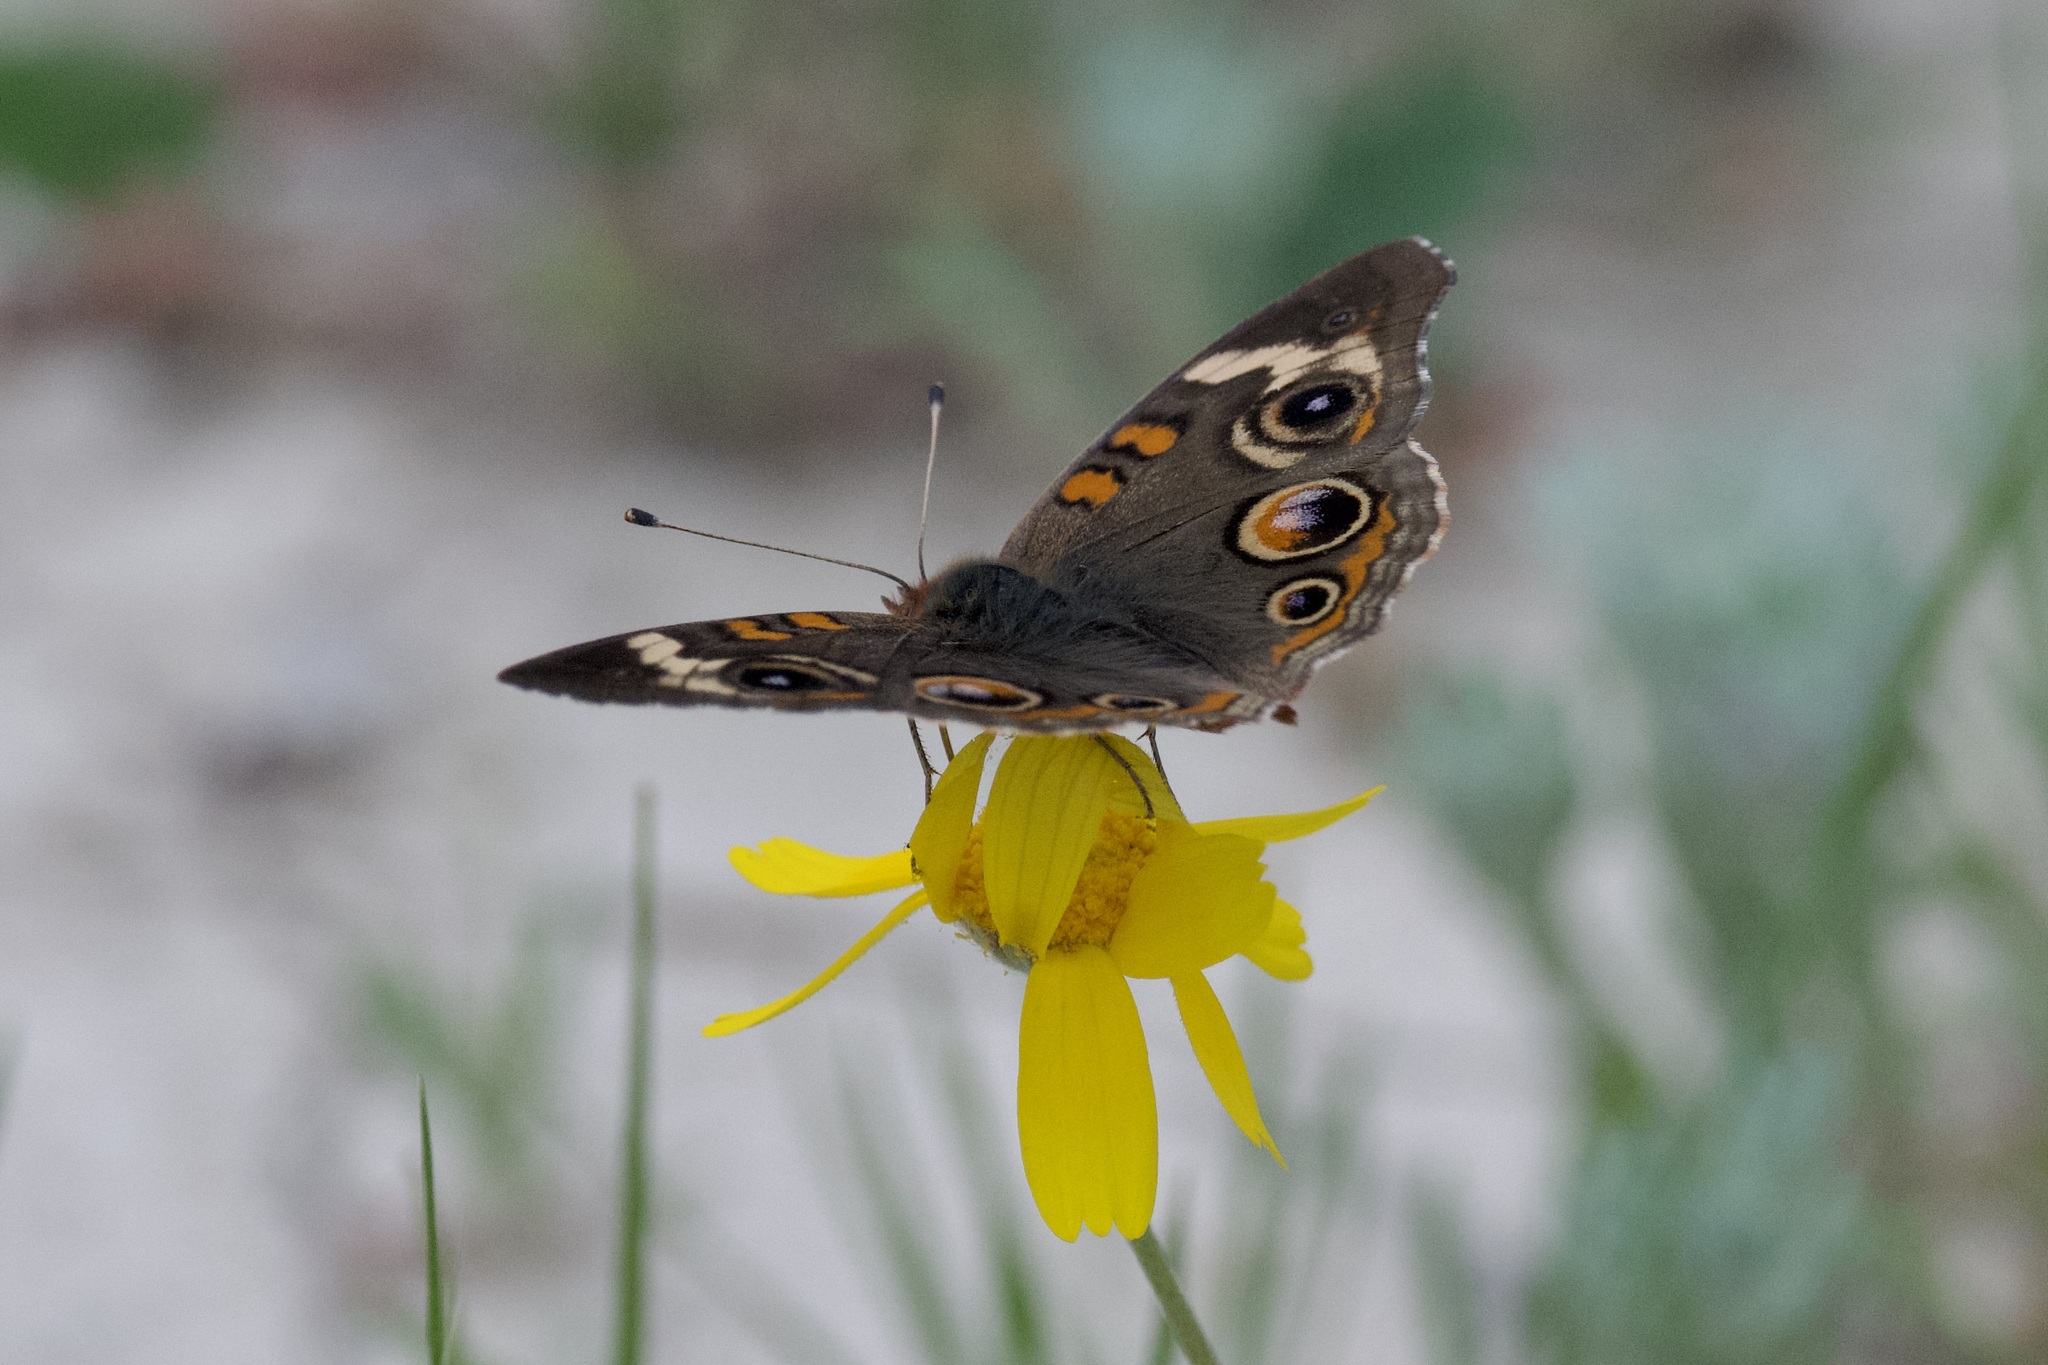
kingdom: Animalia
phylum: Arthropoda
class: Insecta
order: Lepidoptera
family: Nymphalidae
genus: Junonia
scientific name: Junonia coenia
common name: Common buckeye
